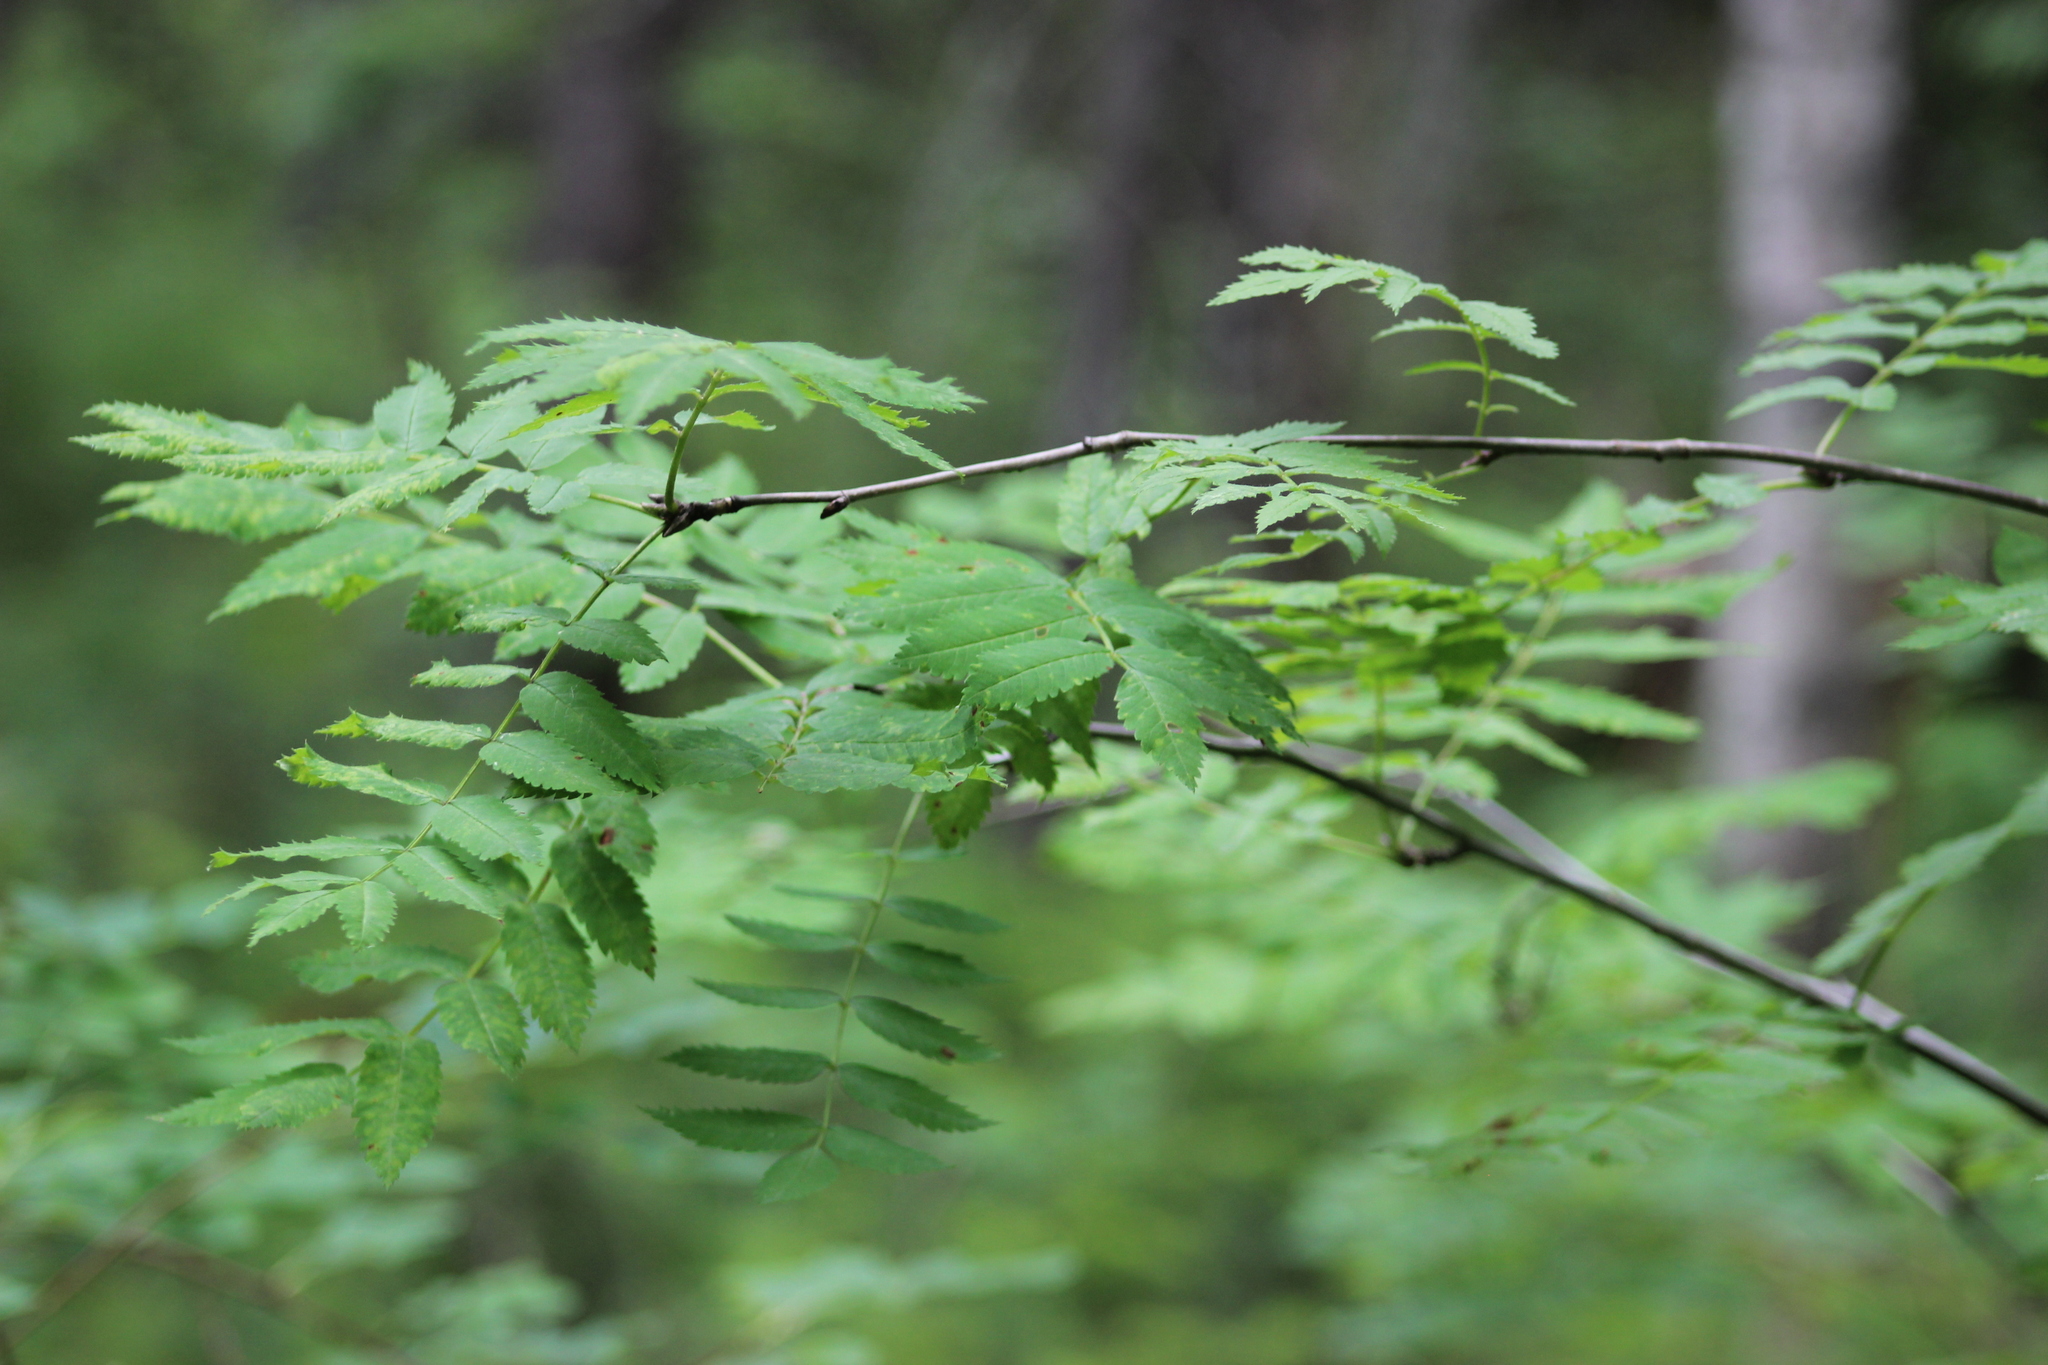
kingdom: Plantae
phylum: Tracheophyta
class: Magnoliopsida
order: Rosales
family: Rosaceae
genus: Sorbus
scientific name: Sorbus aucuparia
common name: Rowan
